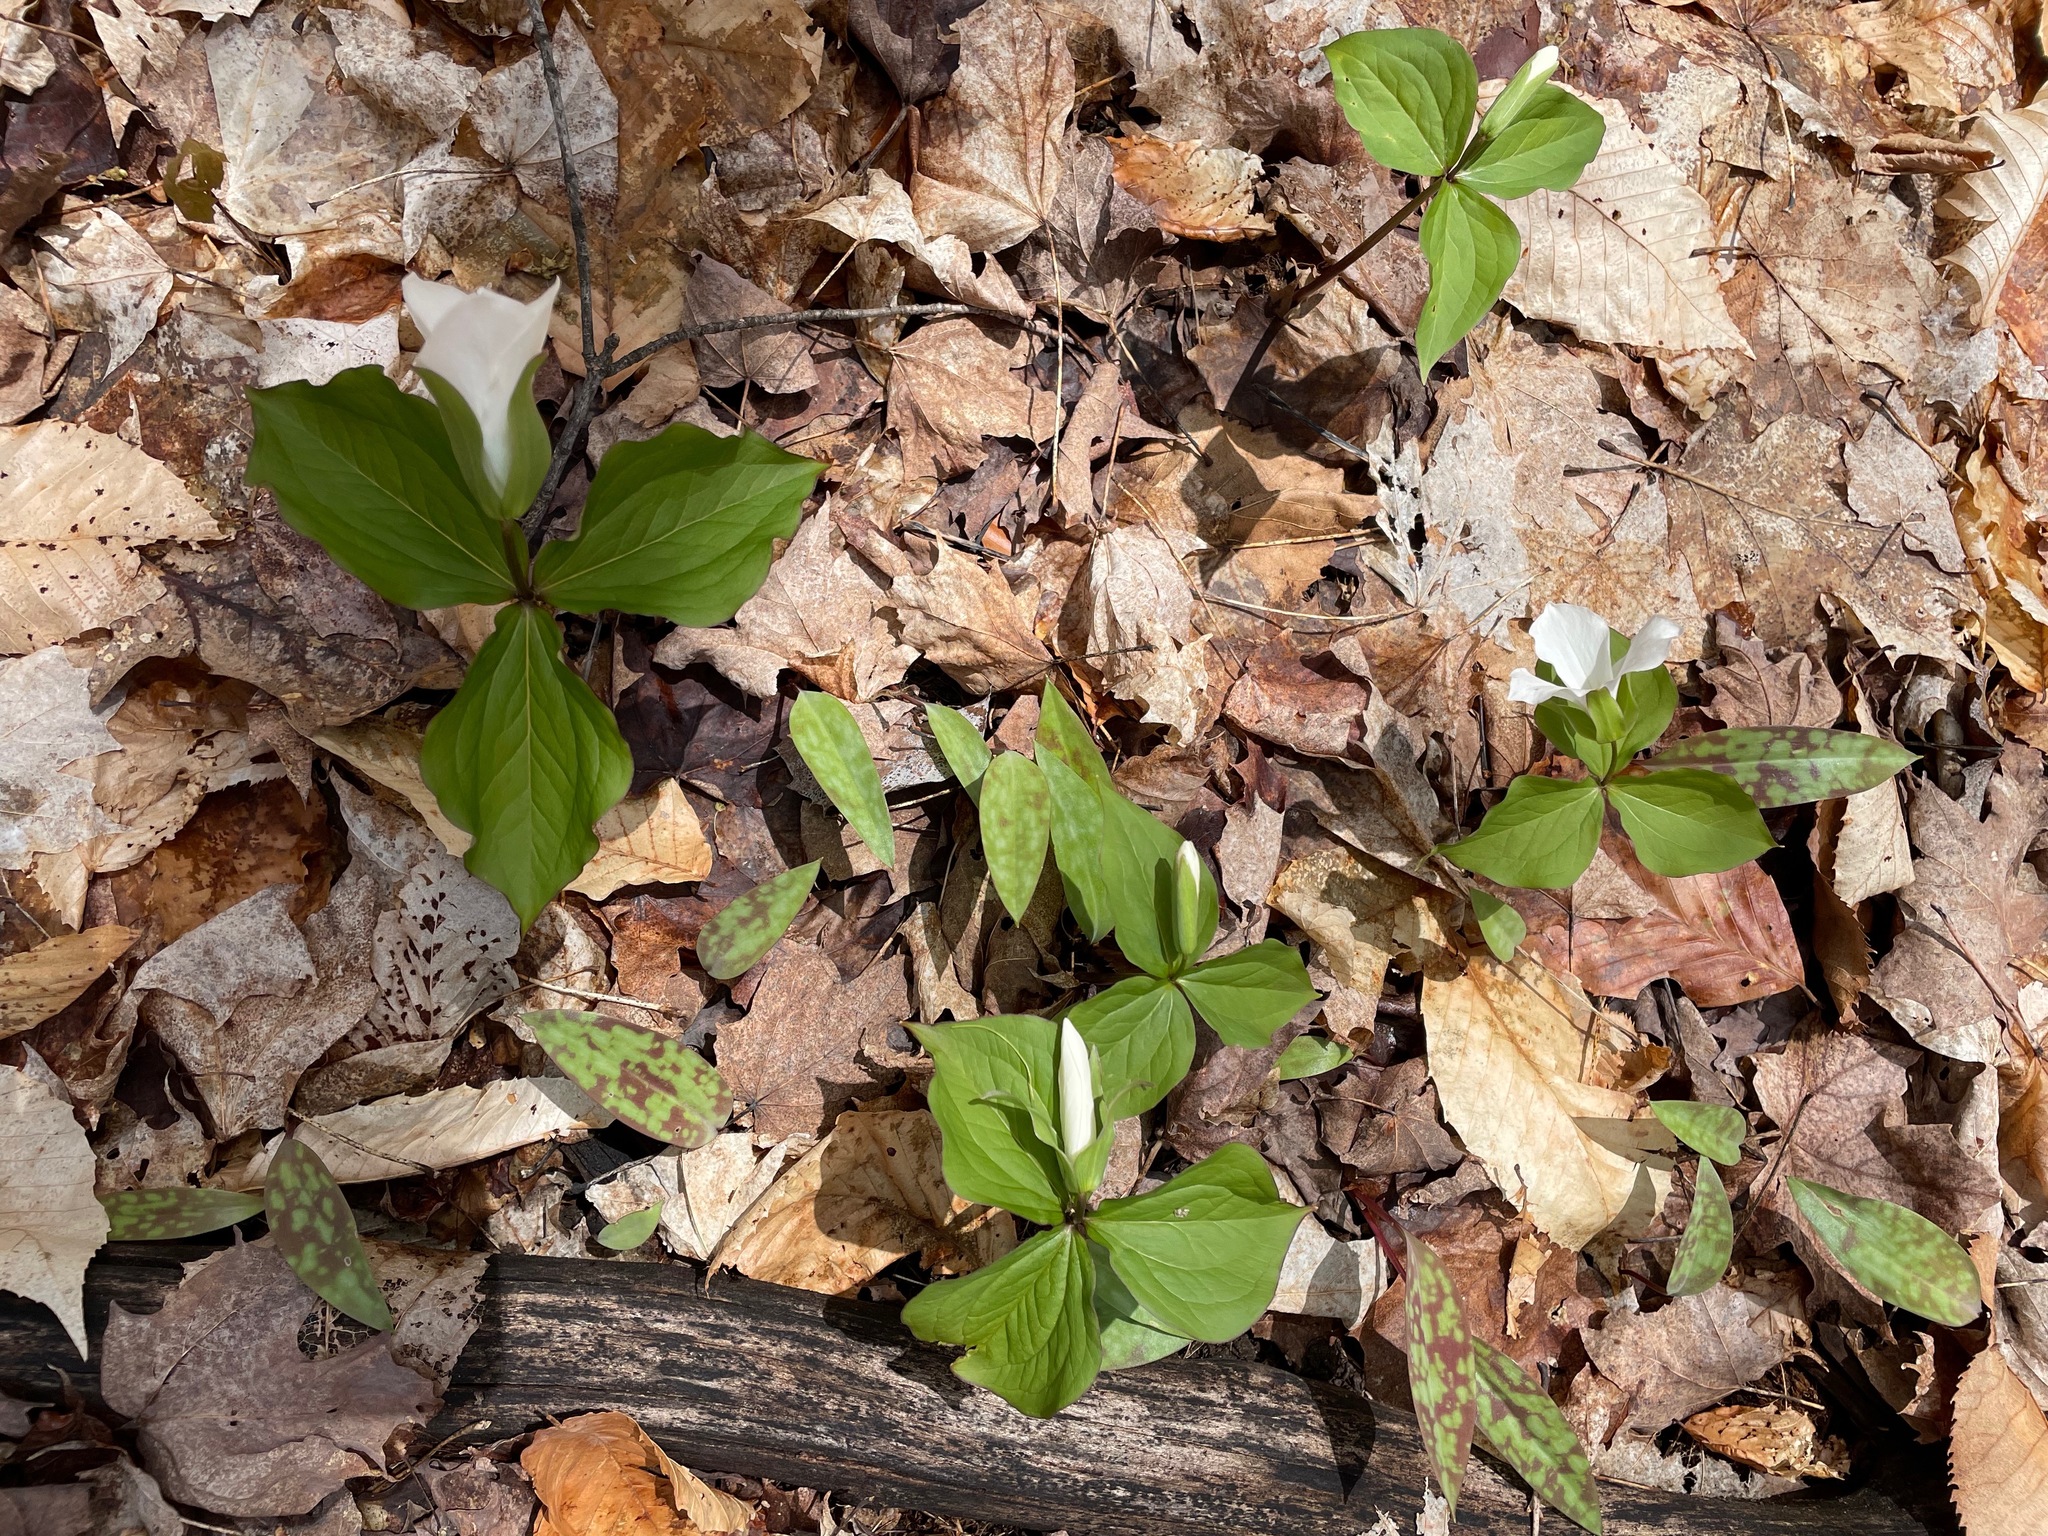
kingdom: Plantae
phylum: Tracheophyta
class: Liliopsida
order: Liliales
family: Melanthiaceae
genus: Trillium
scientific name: Trillium grandiflorum
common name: Great white trillium
